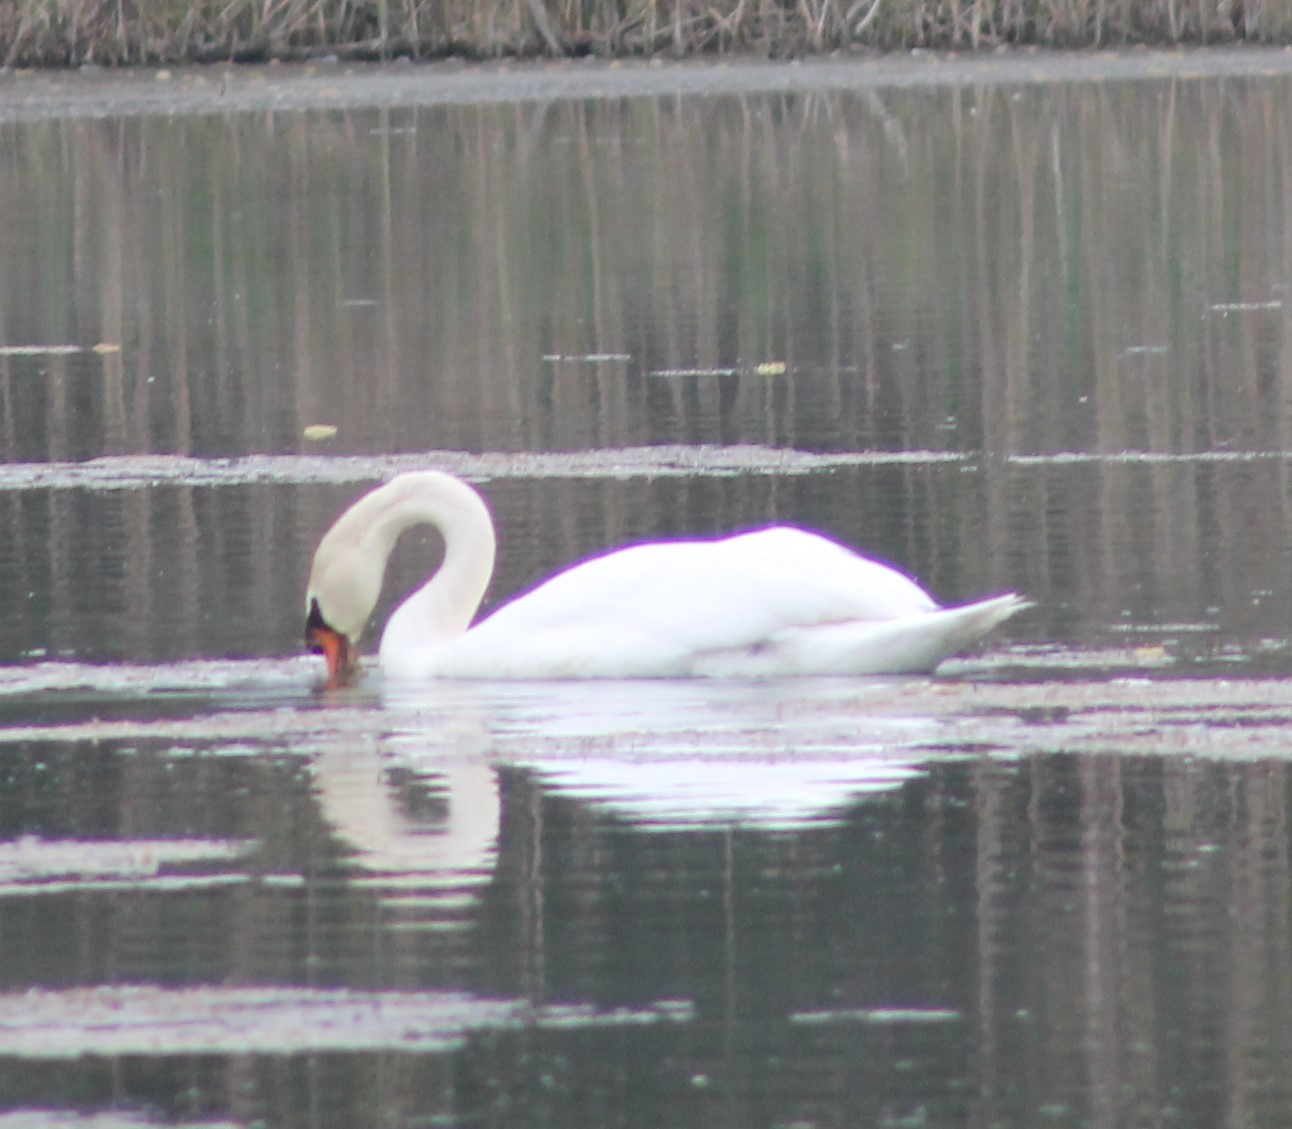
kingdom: Animalia
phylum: Chordata
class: Aves
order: Anseriformes
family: Anatidae
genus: Cygnus
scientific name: Cygnus olor
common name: Mute swan
